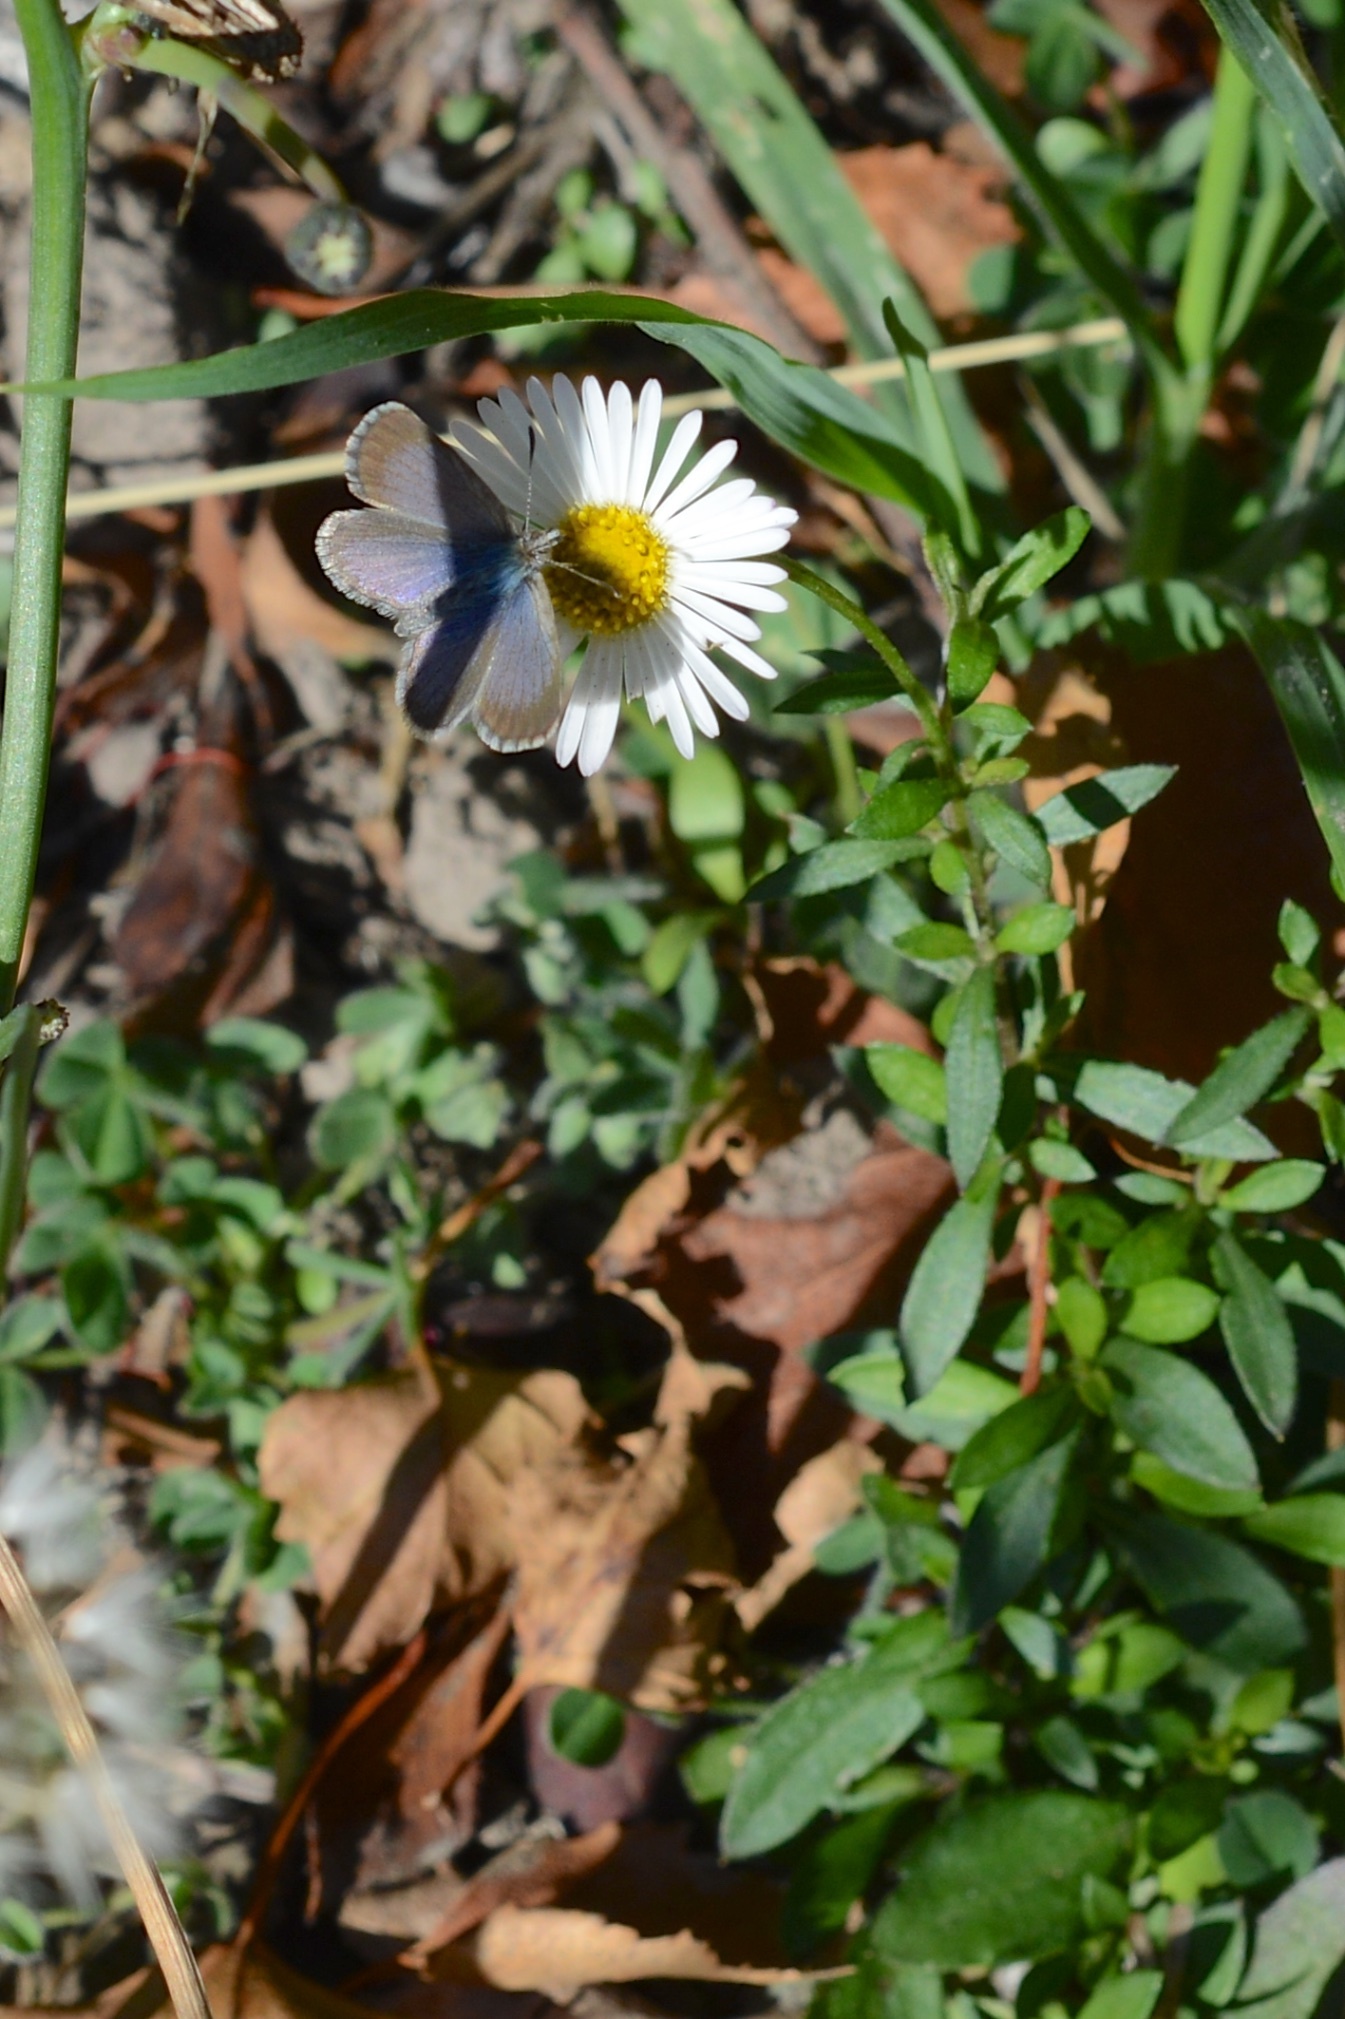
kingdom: Animalia
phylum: Arthropoda
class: Insecta
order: Lepidoptera
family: Lycaenidae
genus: Zizina
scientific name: Zizina oxleyi
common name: Southern blue
